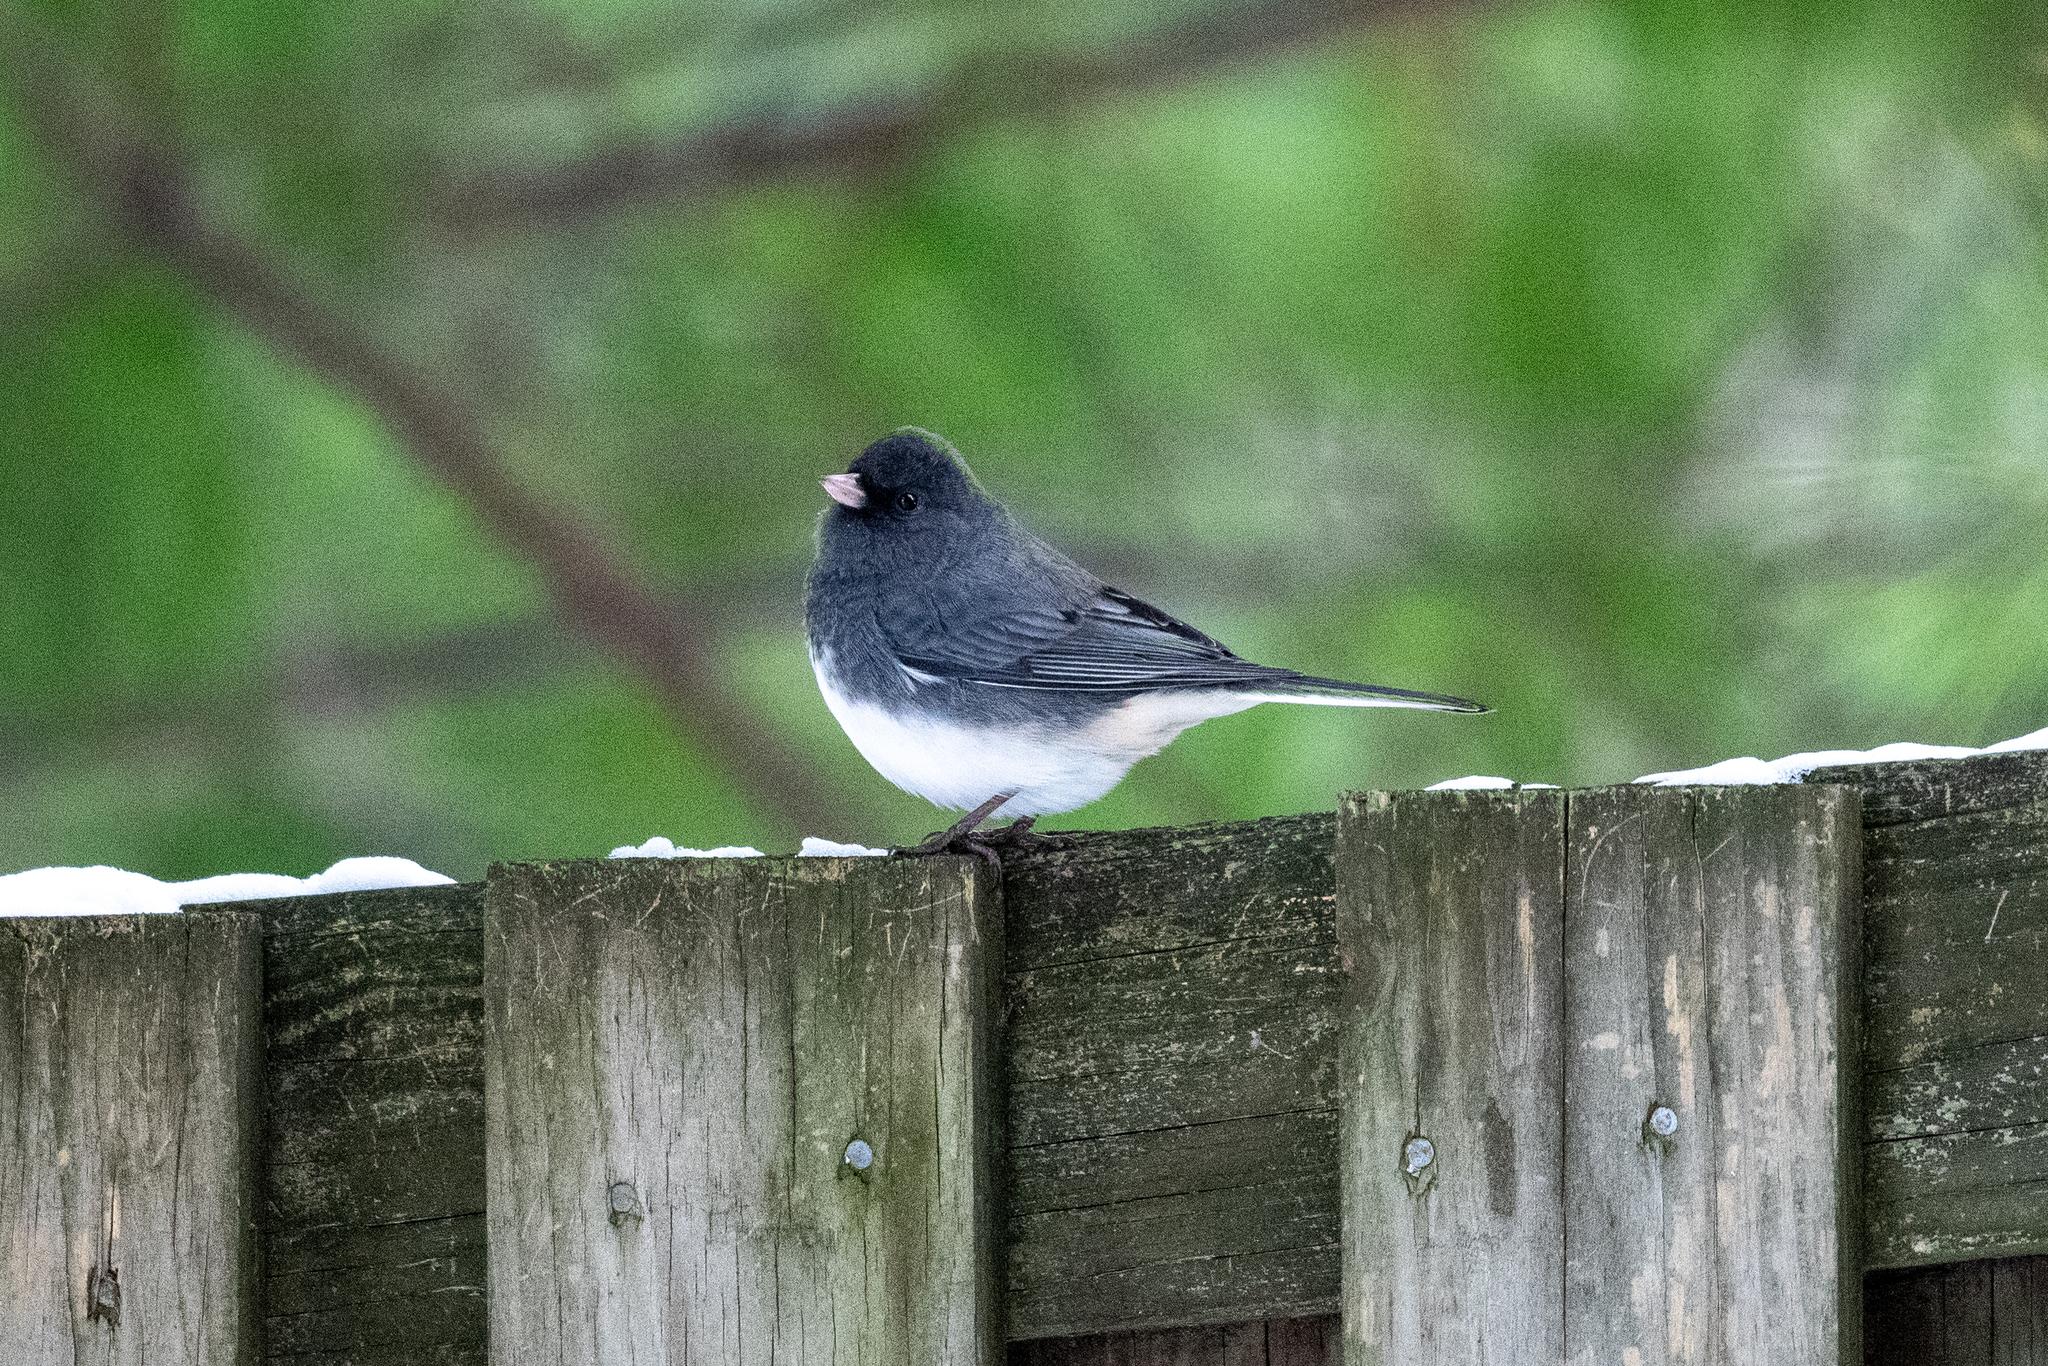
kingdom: Animalia
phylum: Chordata
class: Aves
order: Passeriformes
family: Passerellidae
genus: Junco
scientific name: Junco hyemalis
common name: Dark-eyed junco
